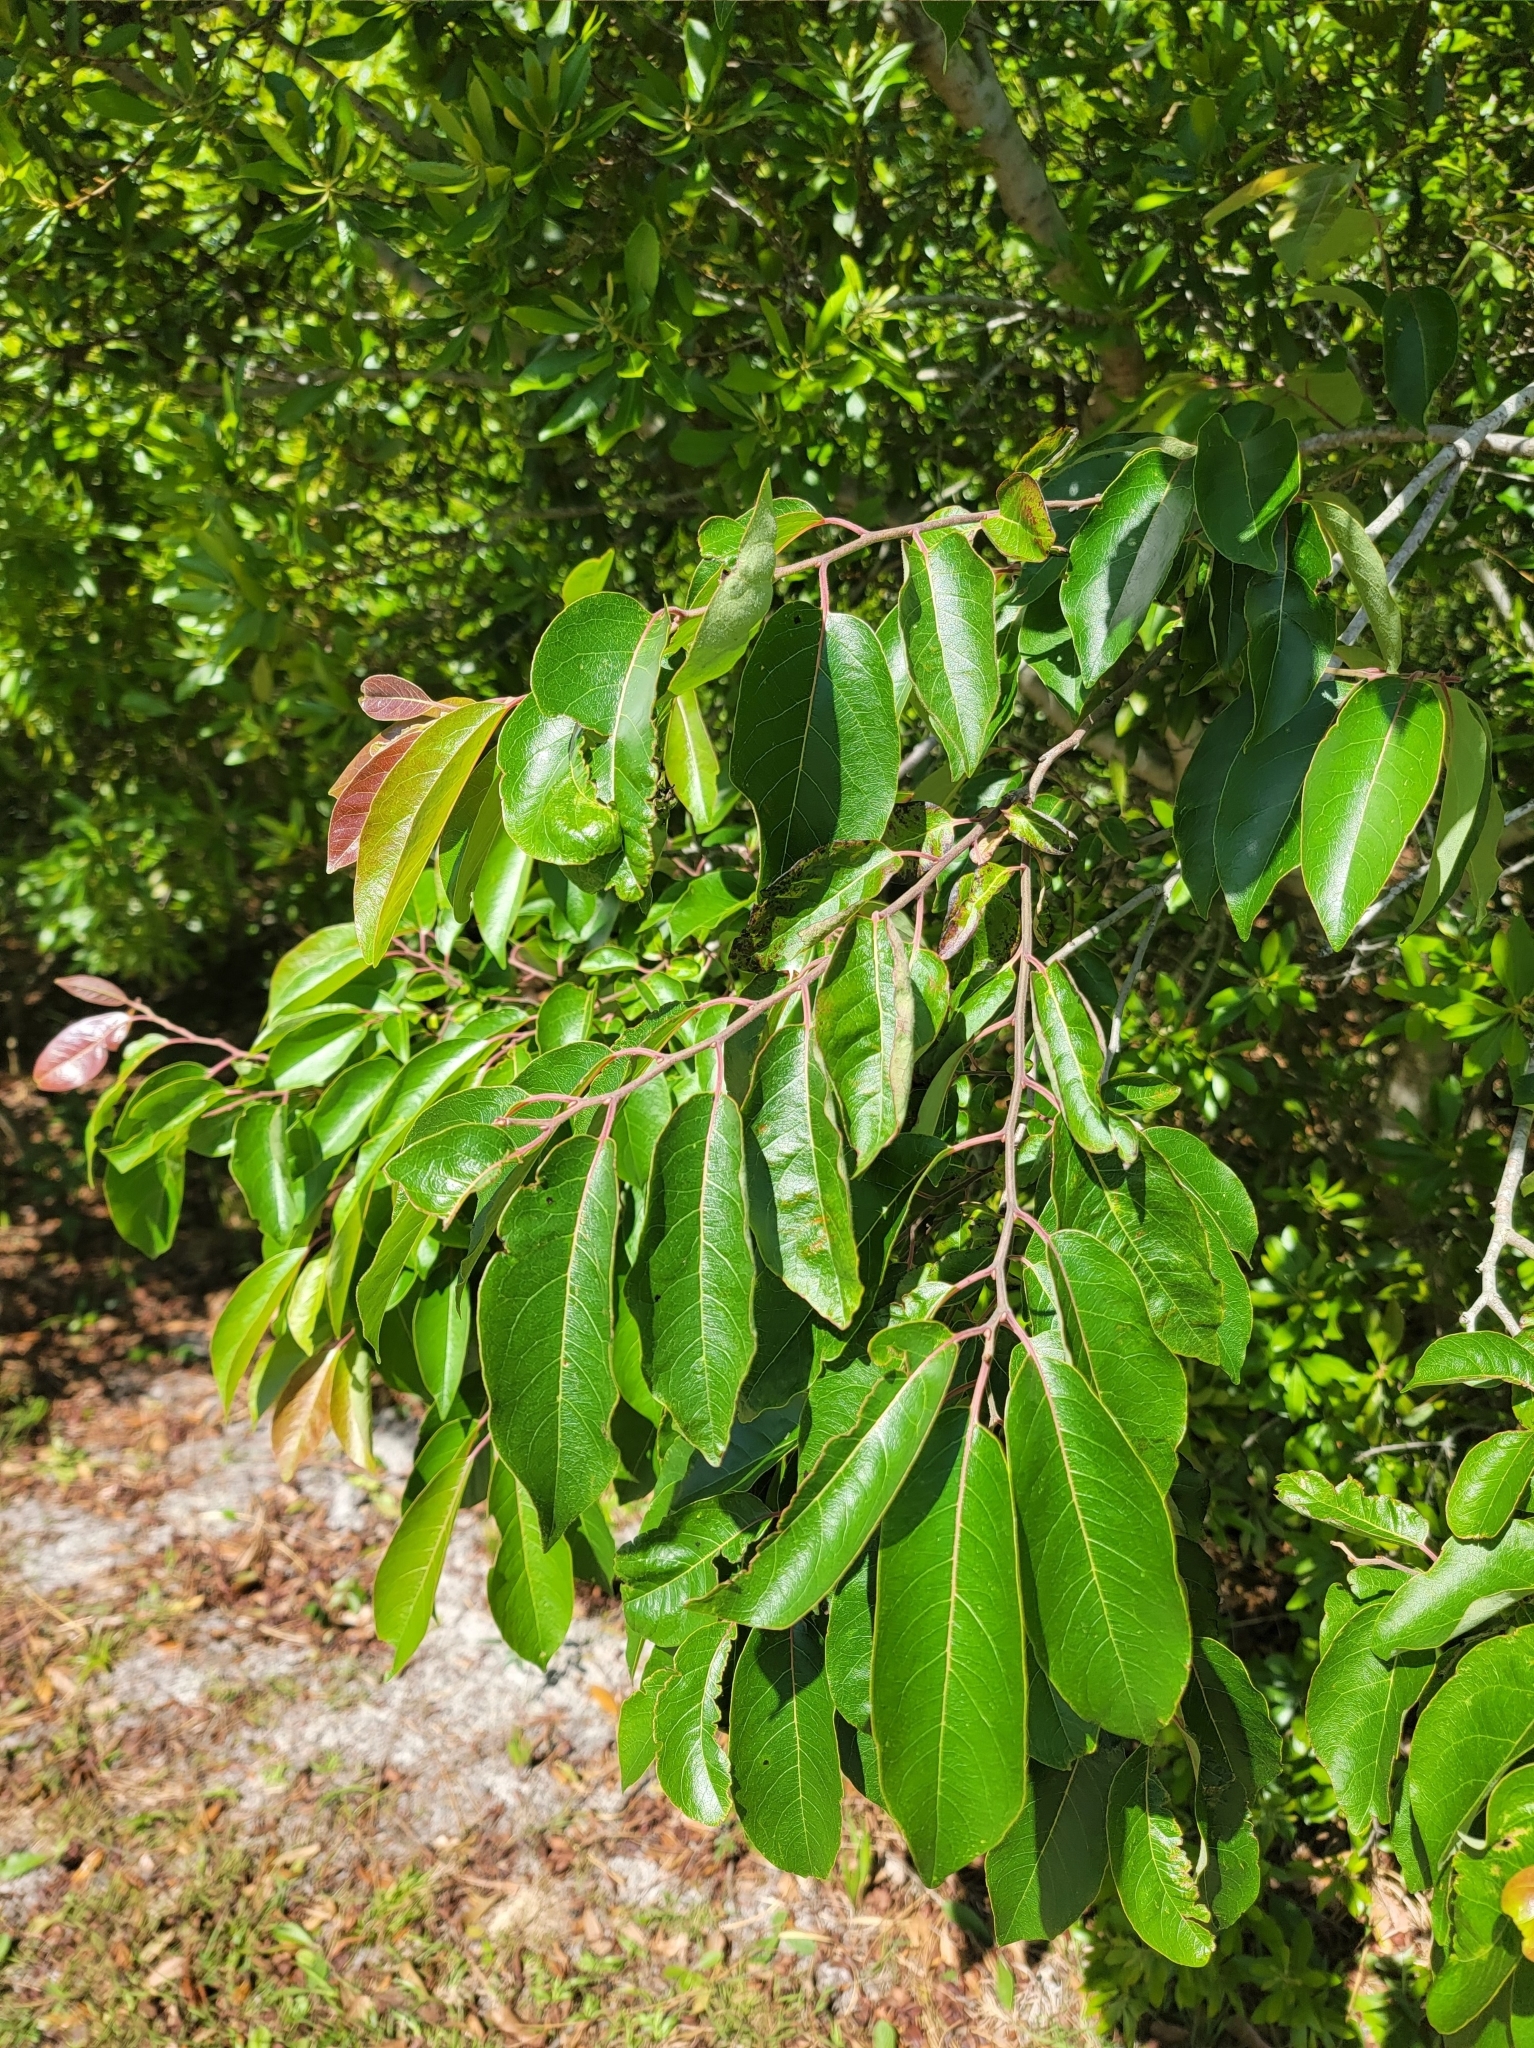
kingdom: Plantae
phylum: Tracheophyta
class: Magnoliopsida
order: Ericales
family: Ebenaceae
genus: Diospyros
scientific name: Diospyros virginiana
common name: Persimmon
